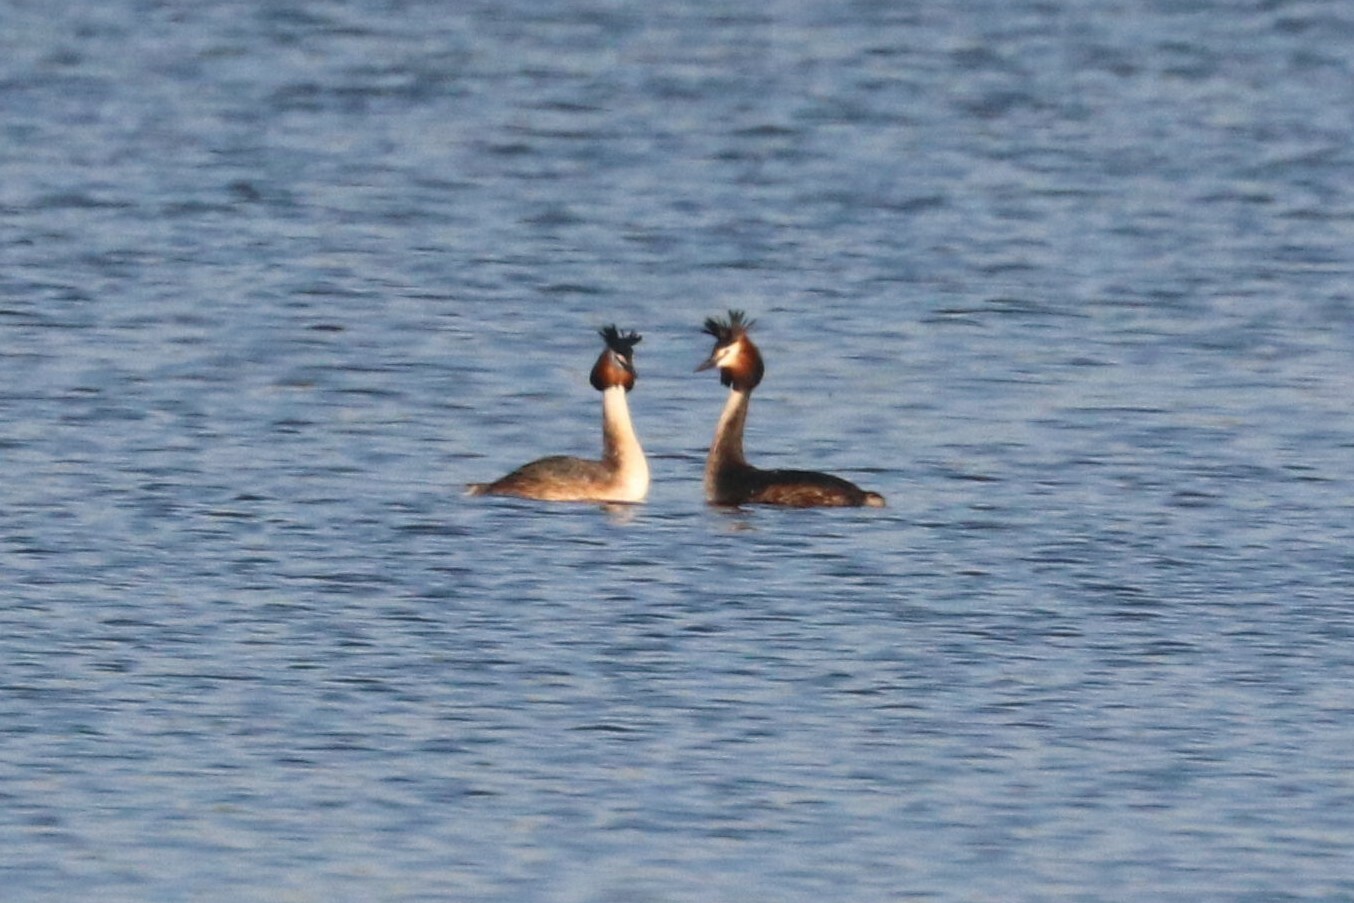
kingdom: Animalia
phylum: Chordata
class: Aves
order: Podicipediformes
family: Podicipedidae
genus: Podiceps
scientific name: Podiceps cristatus
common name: Great crested grebe
